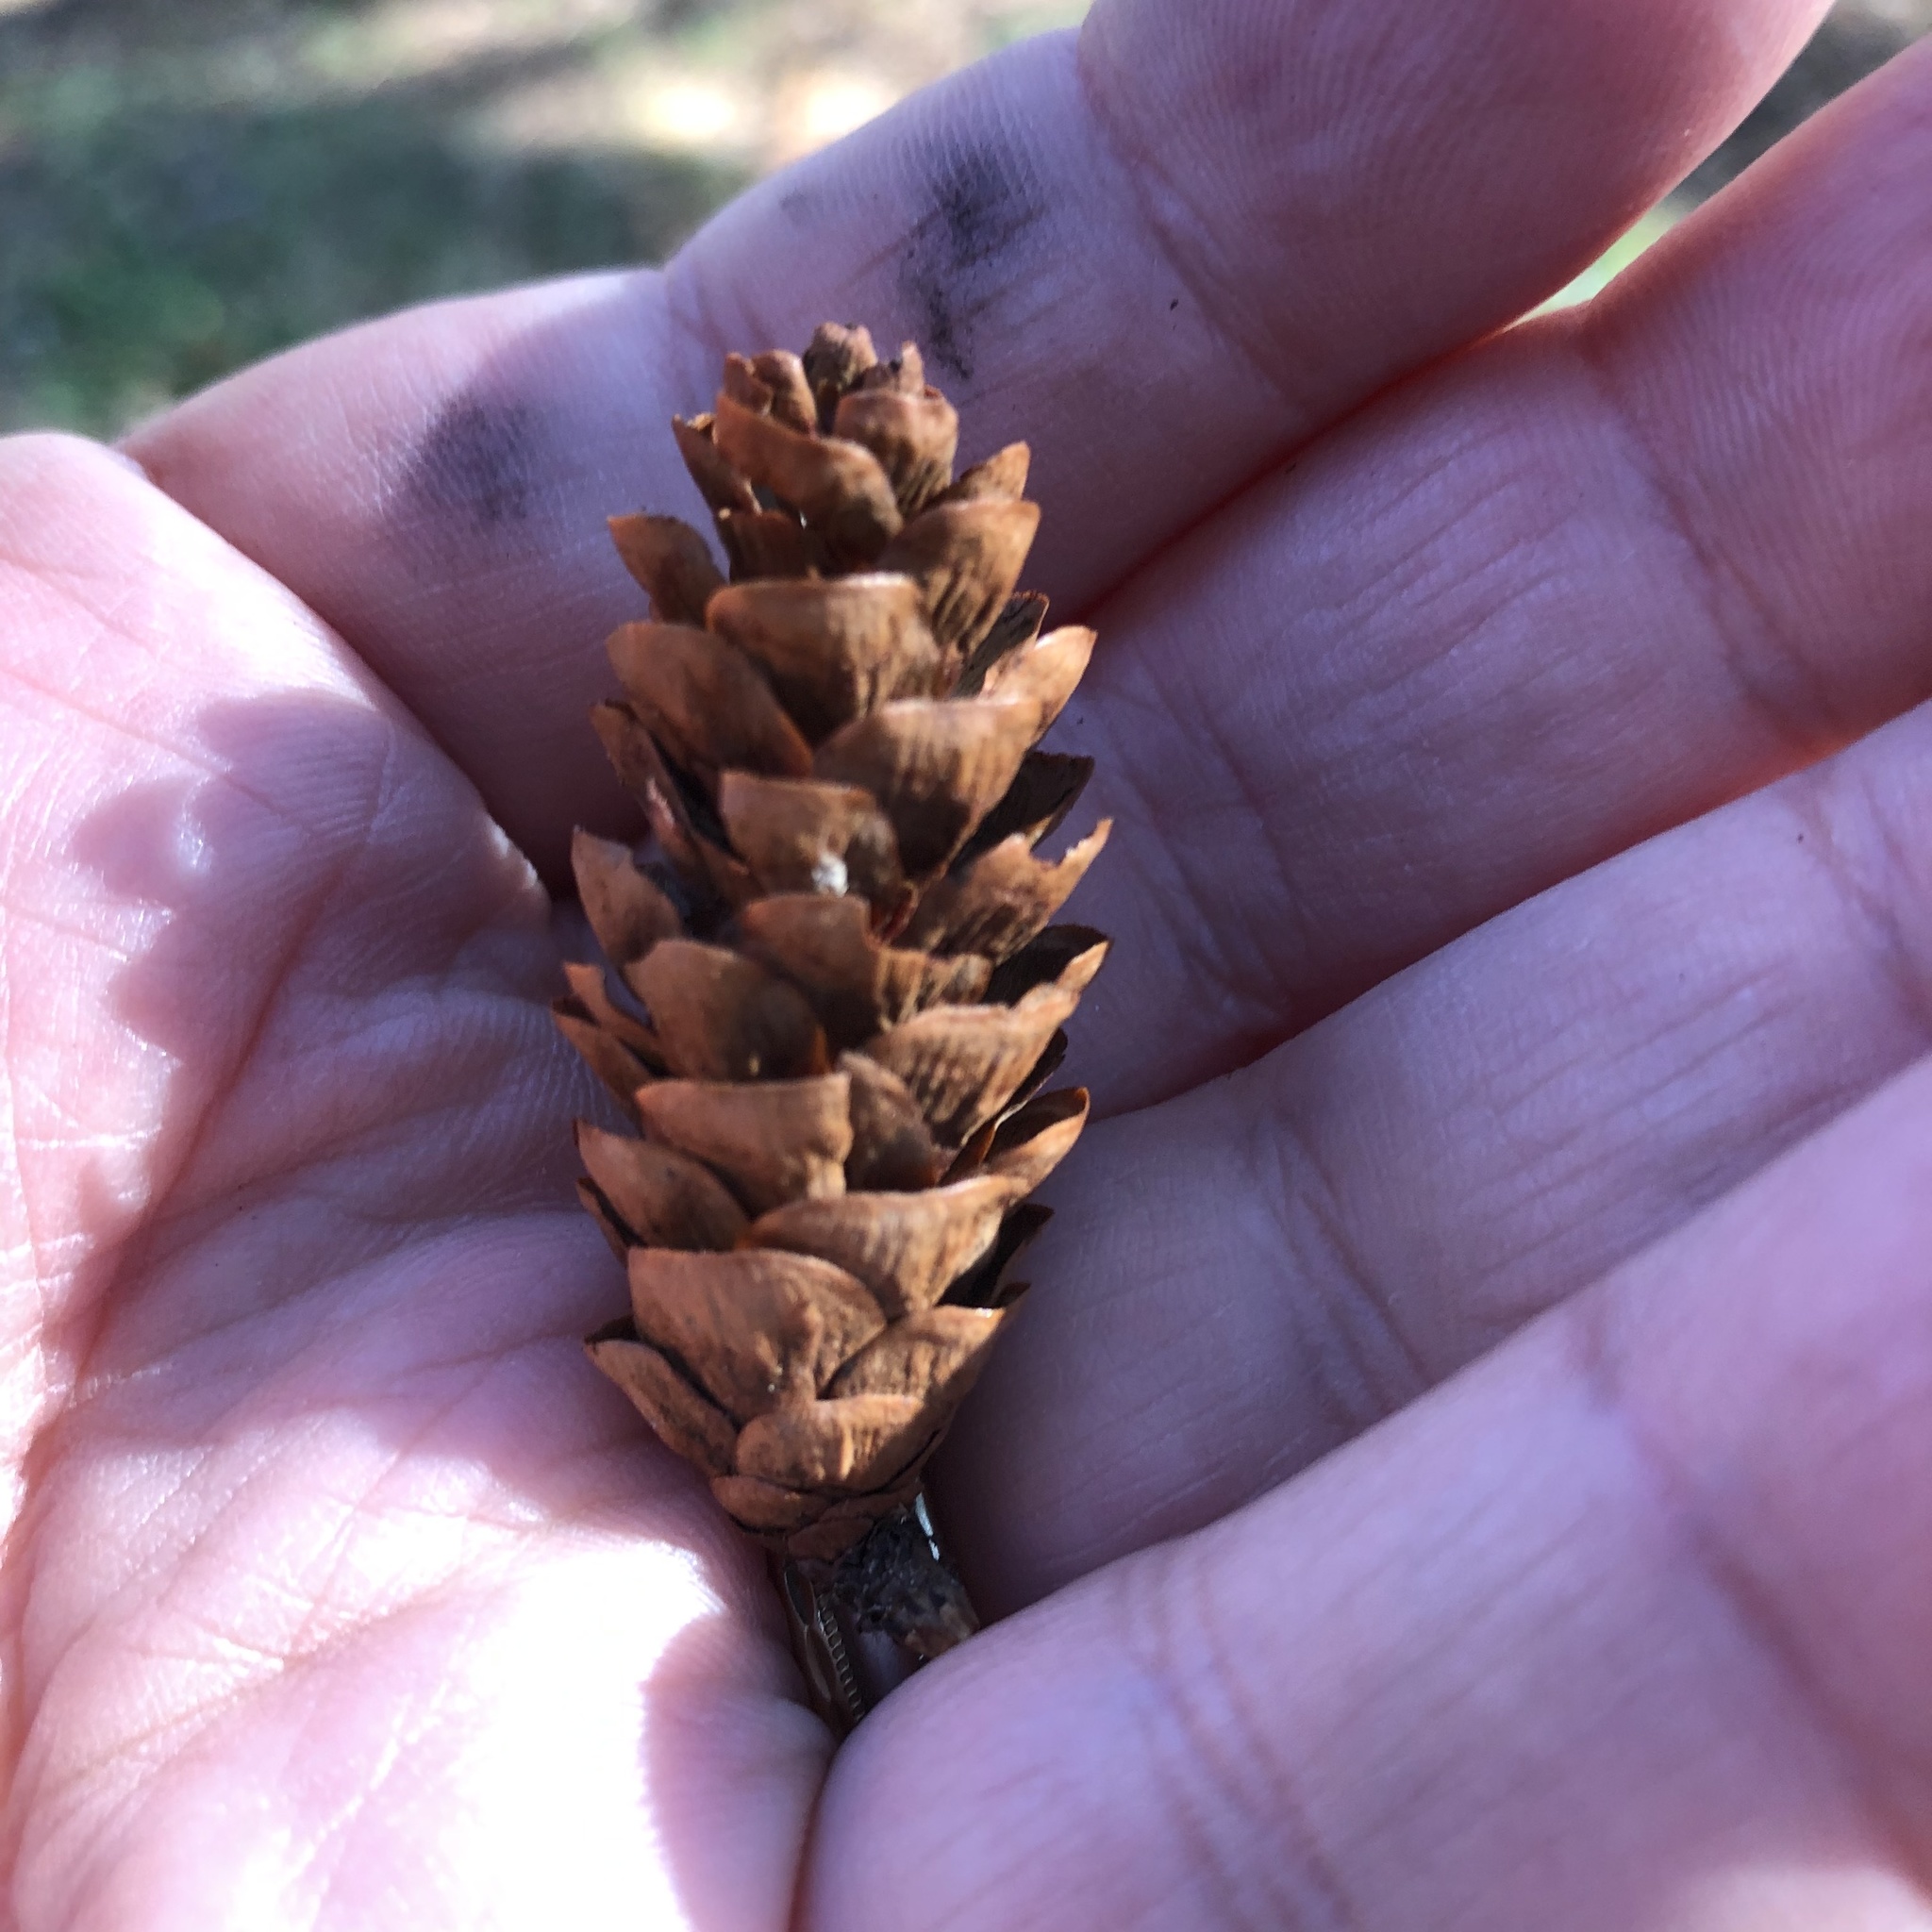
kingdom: Plantae
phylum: Tracheophyta
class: Pinopsida
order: Pinales
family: Pinaceae
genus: Picea
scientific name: Picea glauca
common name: White spruce
